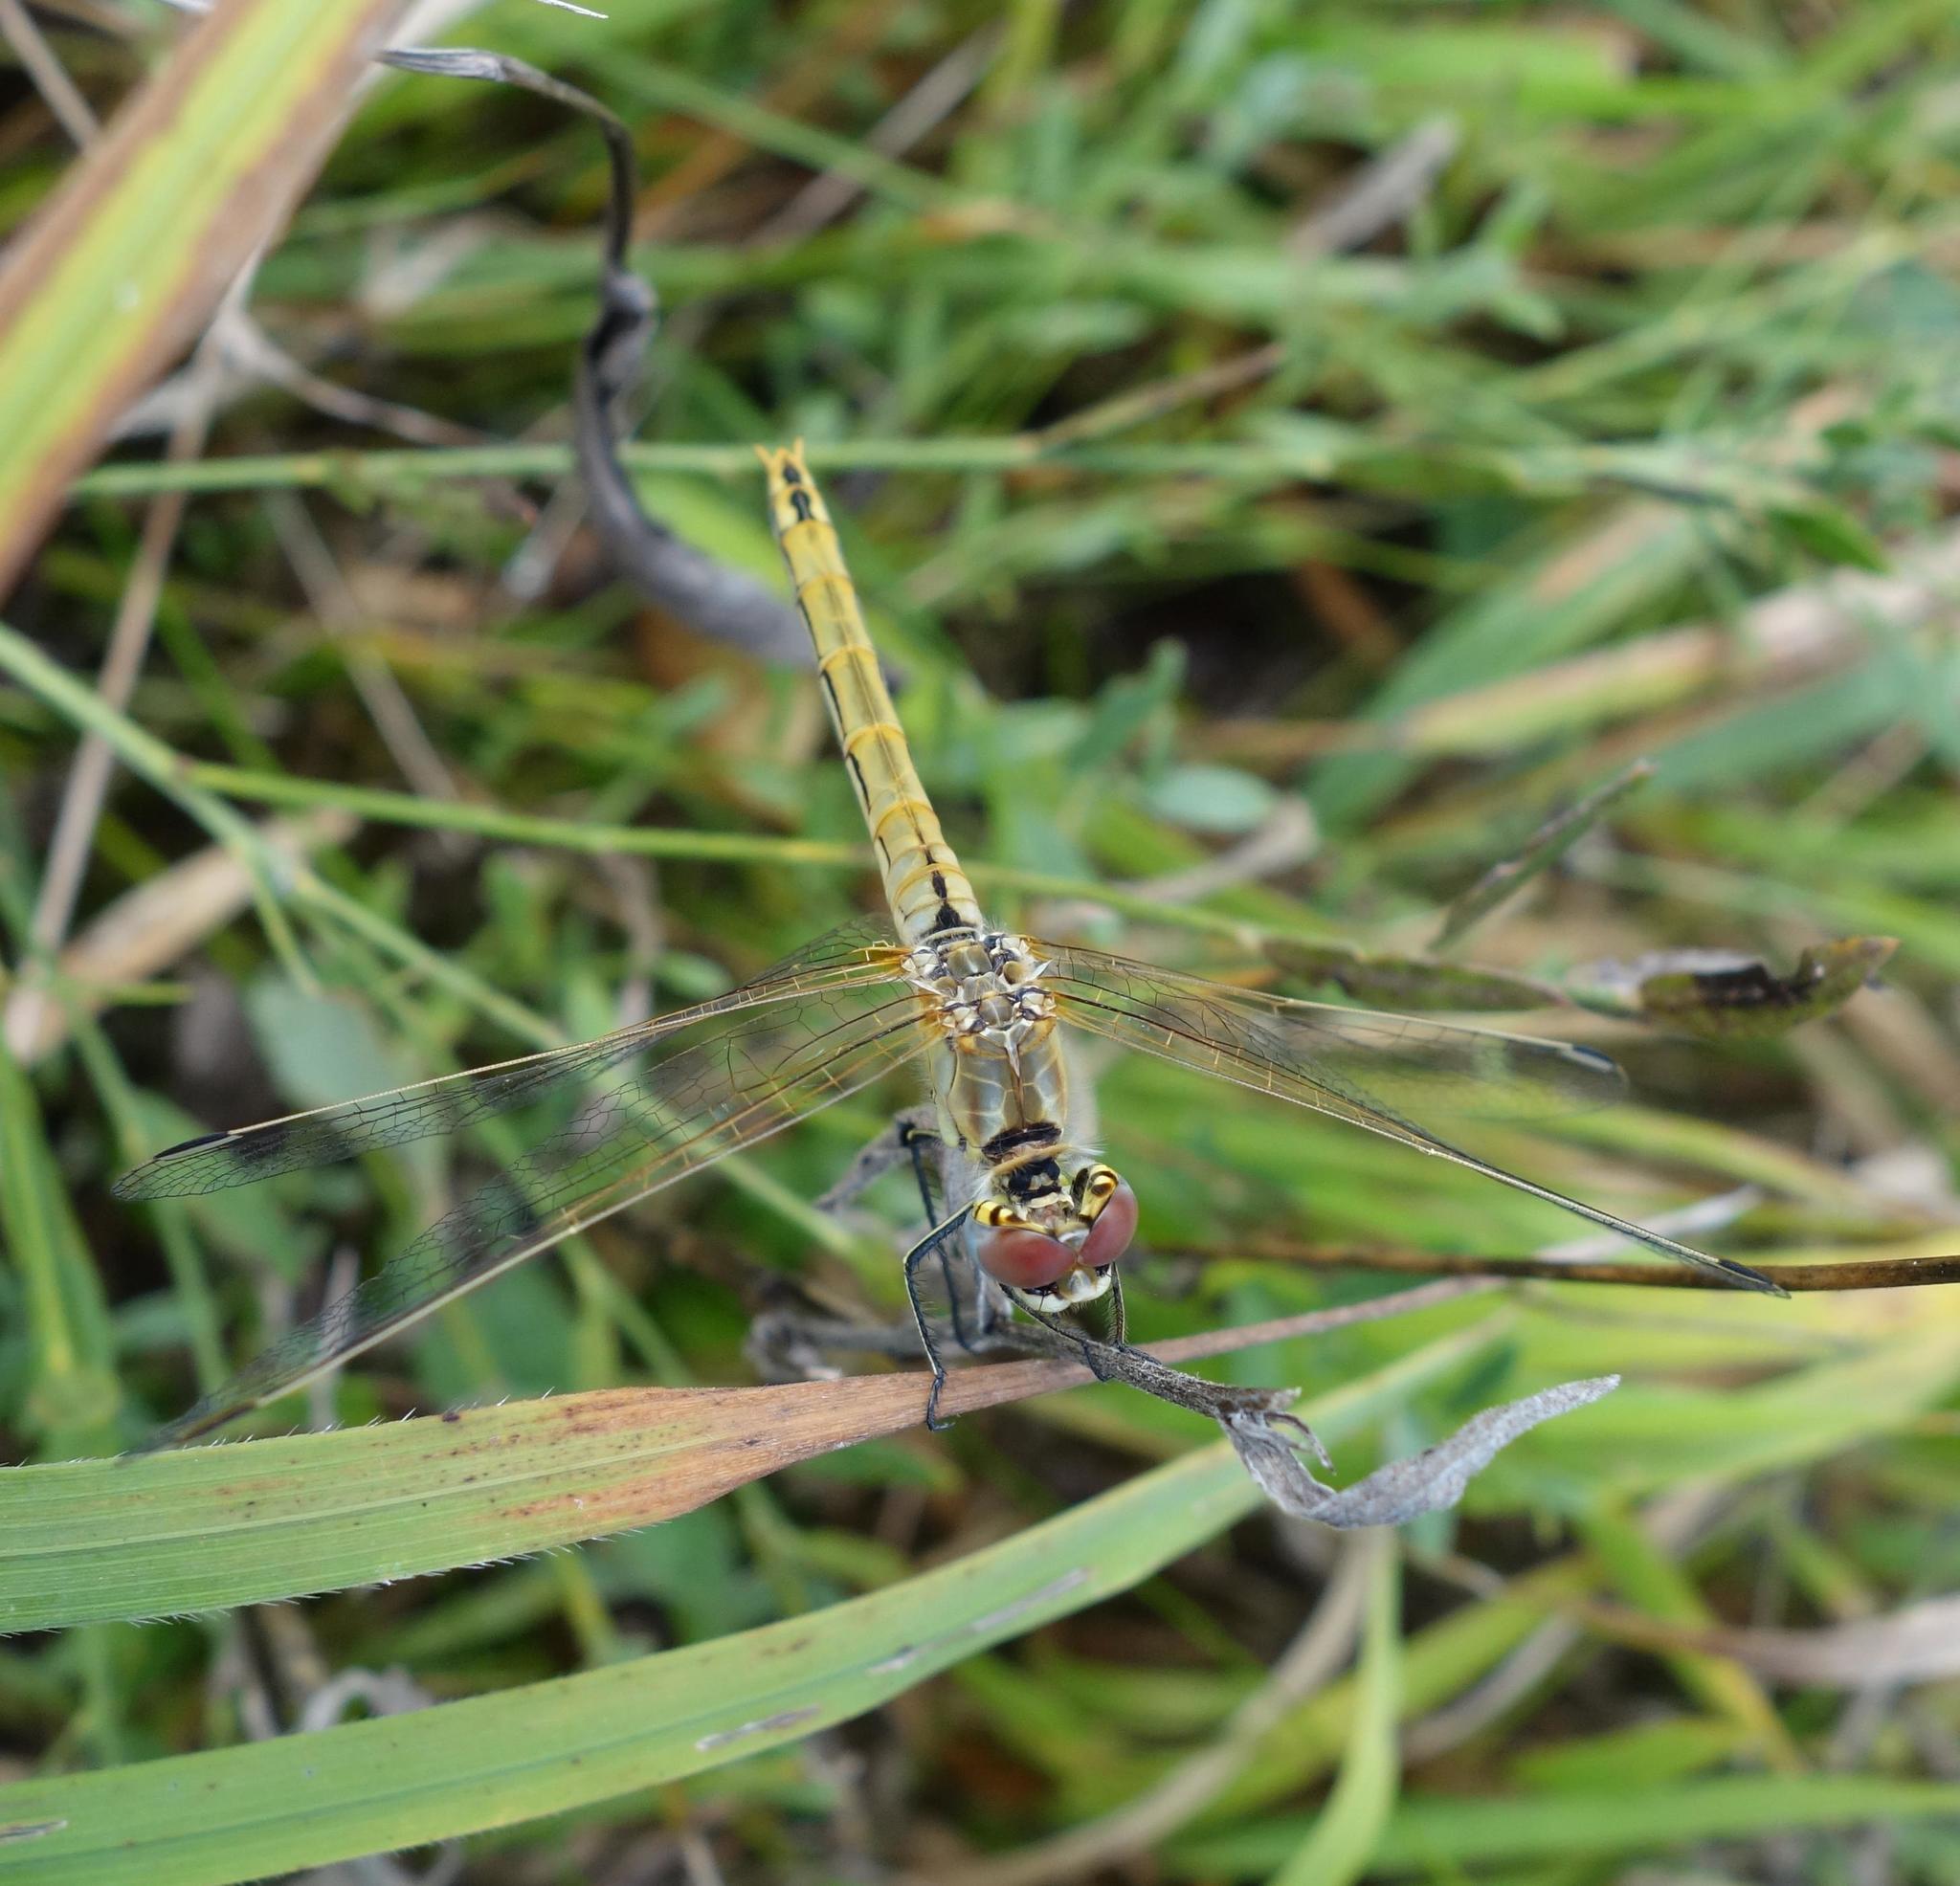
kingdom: Animalia
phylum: Arthropoda
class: Insecta
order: Odonata
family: Libellulidae
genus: Sympetrum
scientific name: Sympetrum fonscolombii
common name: Red-veined darter
